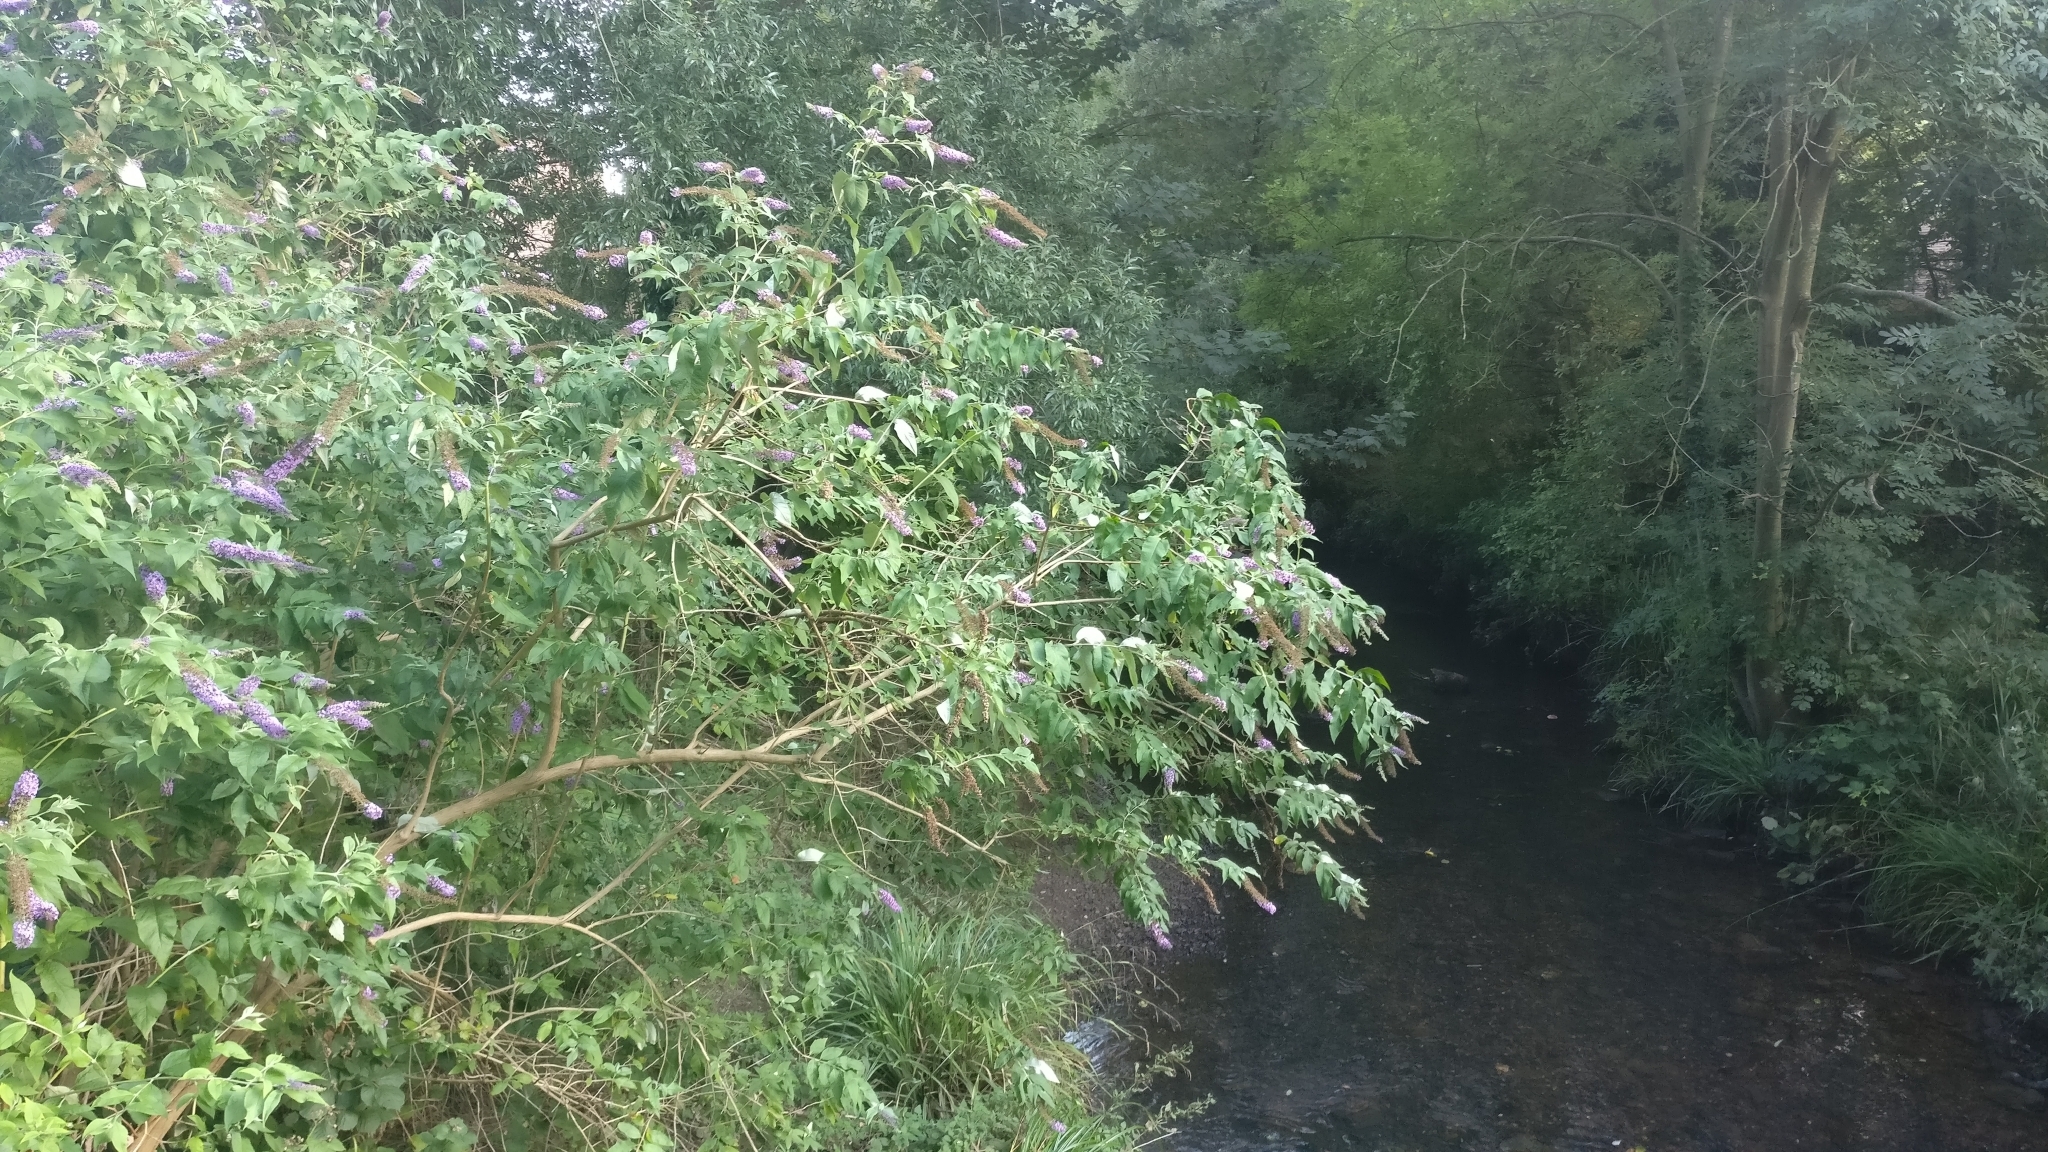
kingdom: Plantae
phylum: Tracheophyta
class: Magnoliopsida
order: Lamiales
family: Scrophulariaceae
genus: Buddleja
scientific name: Buddleja davidii
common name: Butterfly-bush
